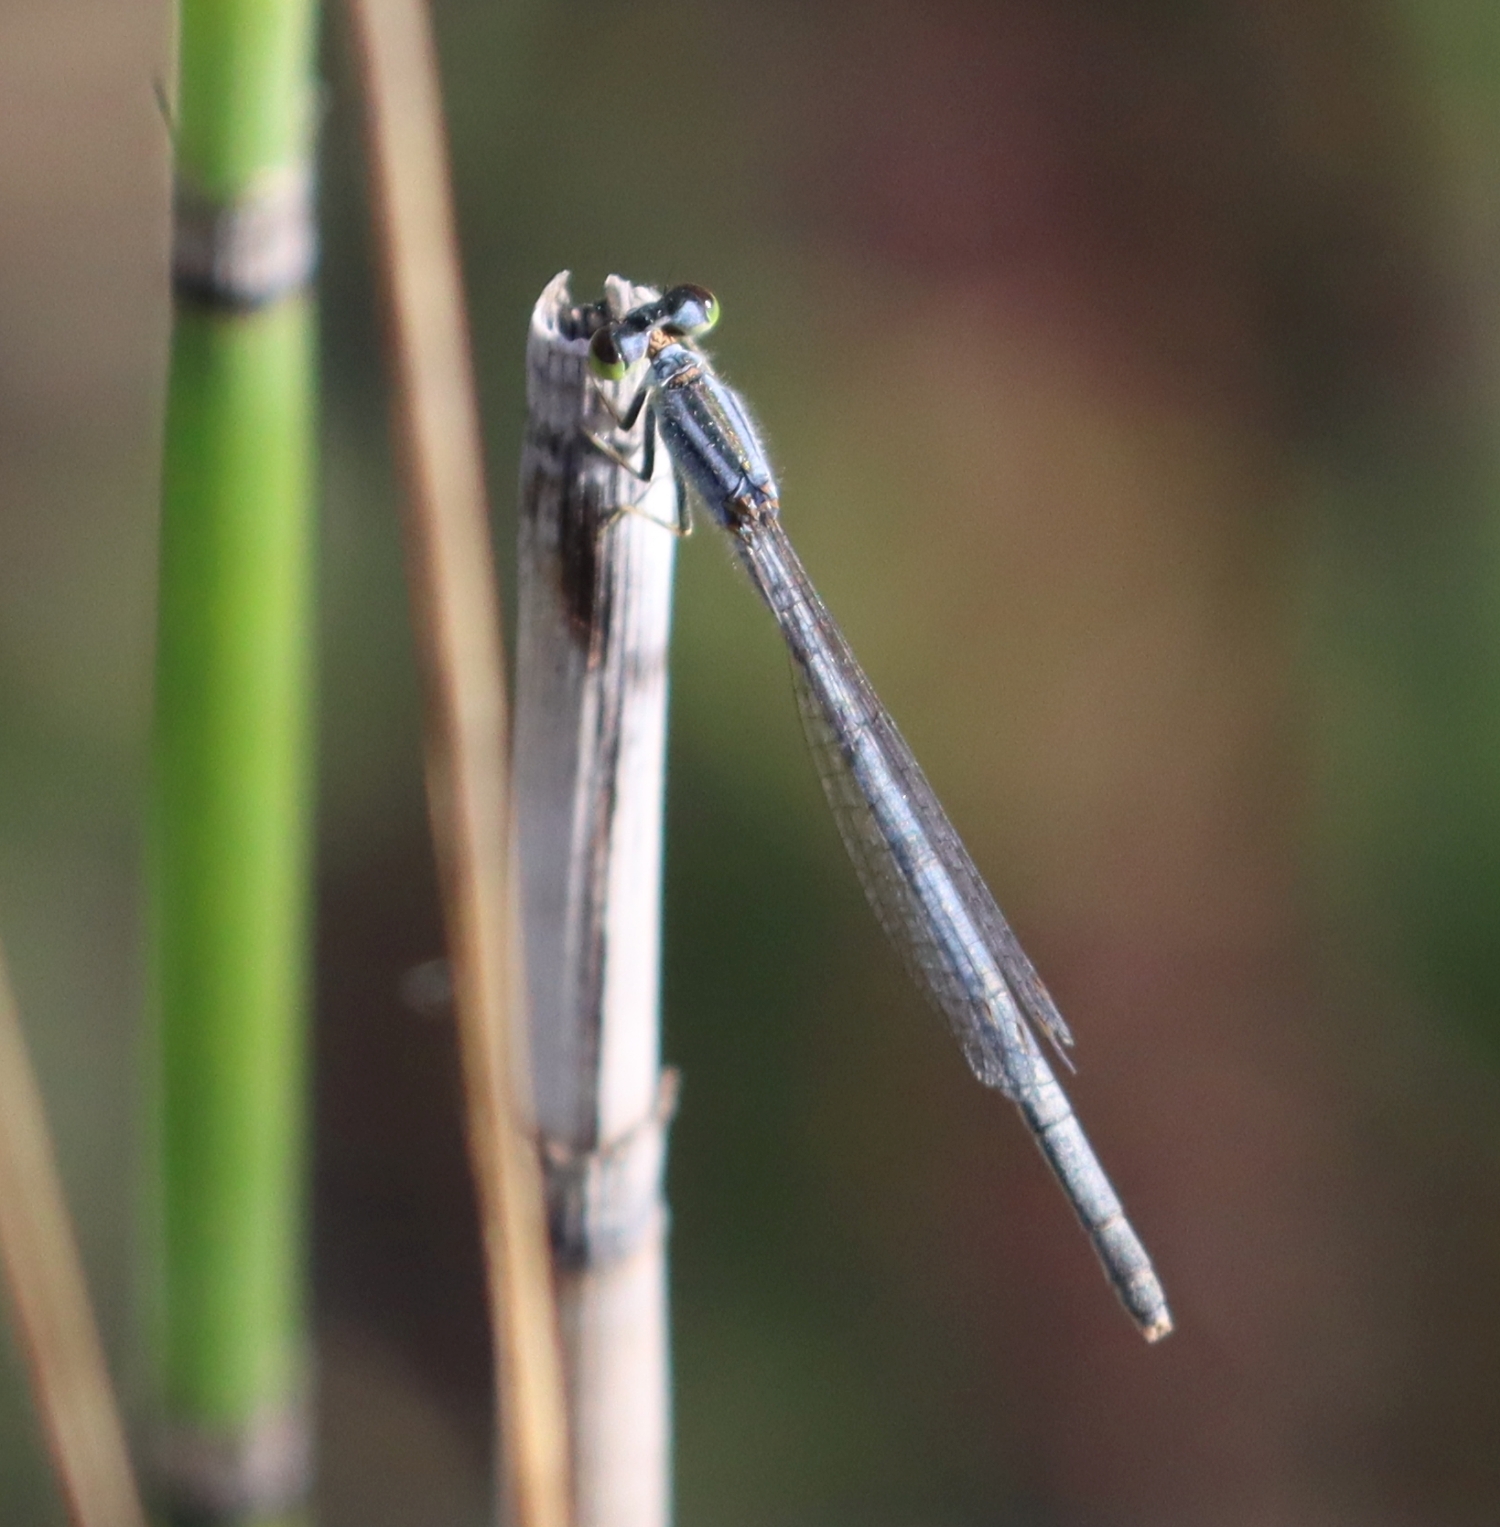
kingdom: Animalia
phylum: Arthropoda
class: Insecta
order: Odonata
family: Coenagrionidae
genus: Ischnura
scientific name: Ischnura verticalis
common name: Eastern forktail
